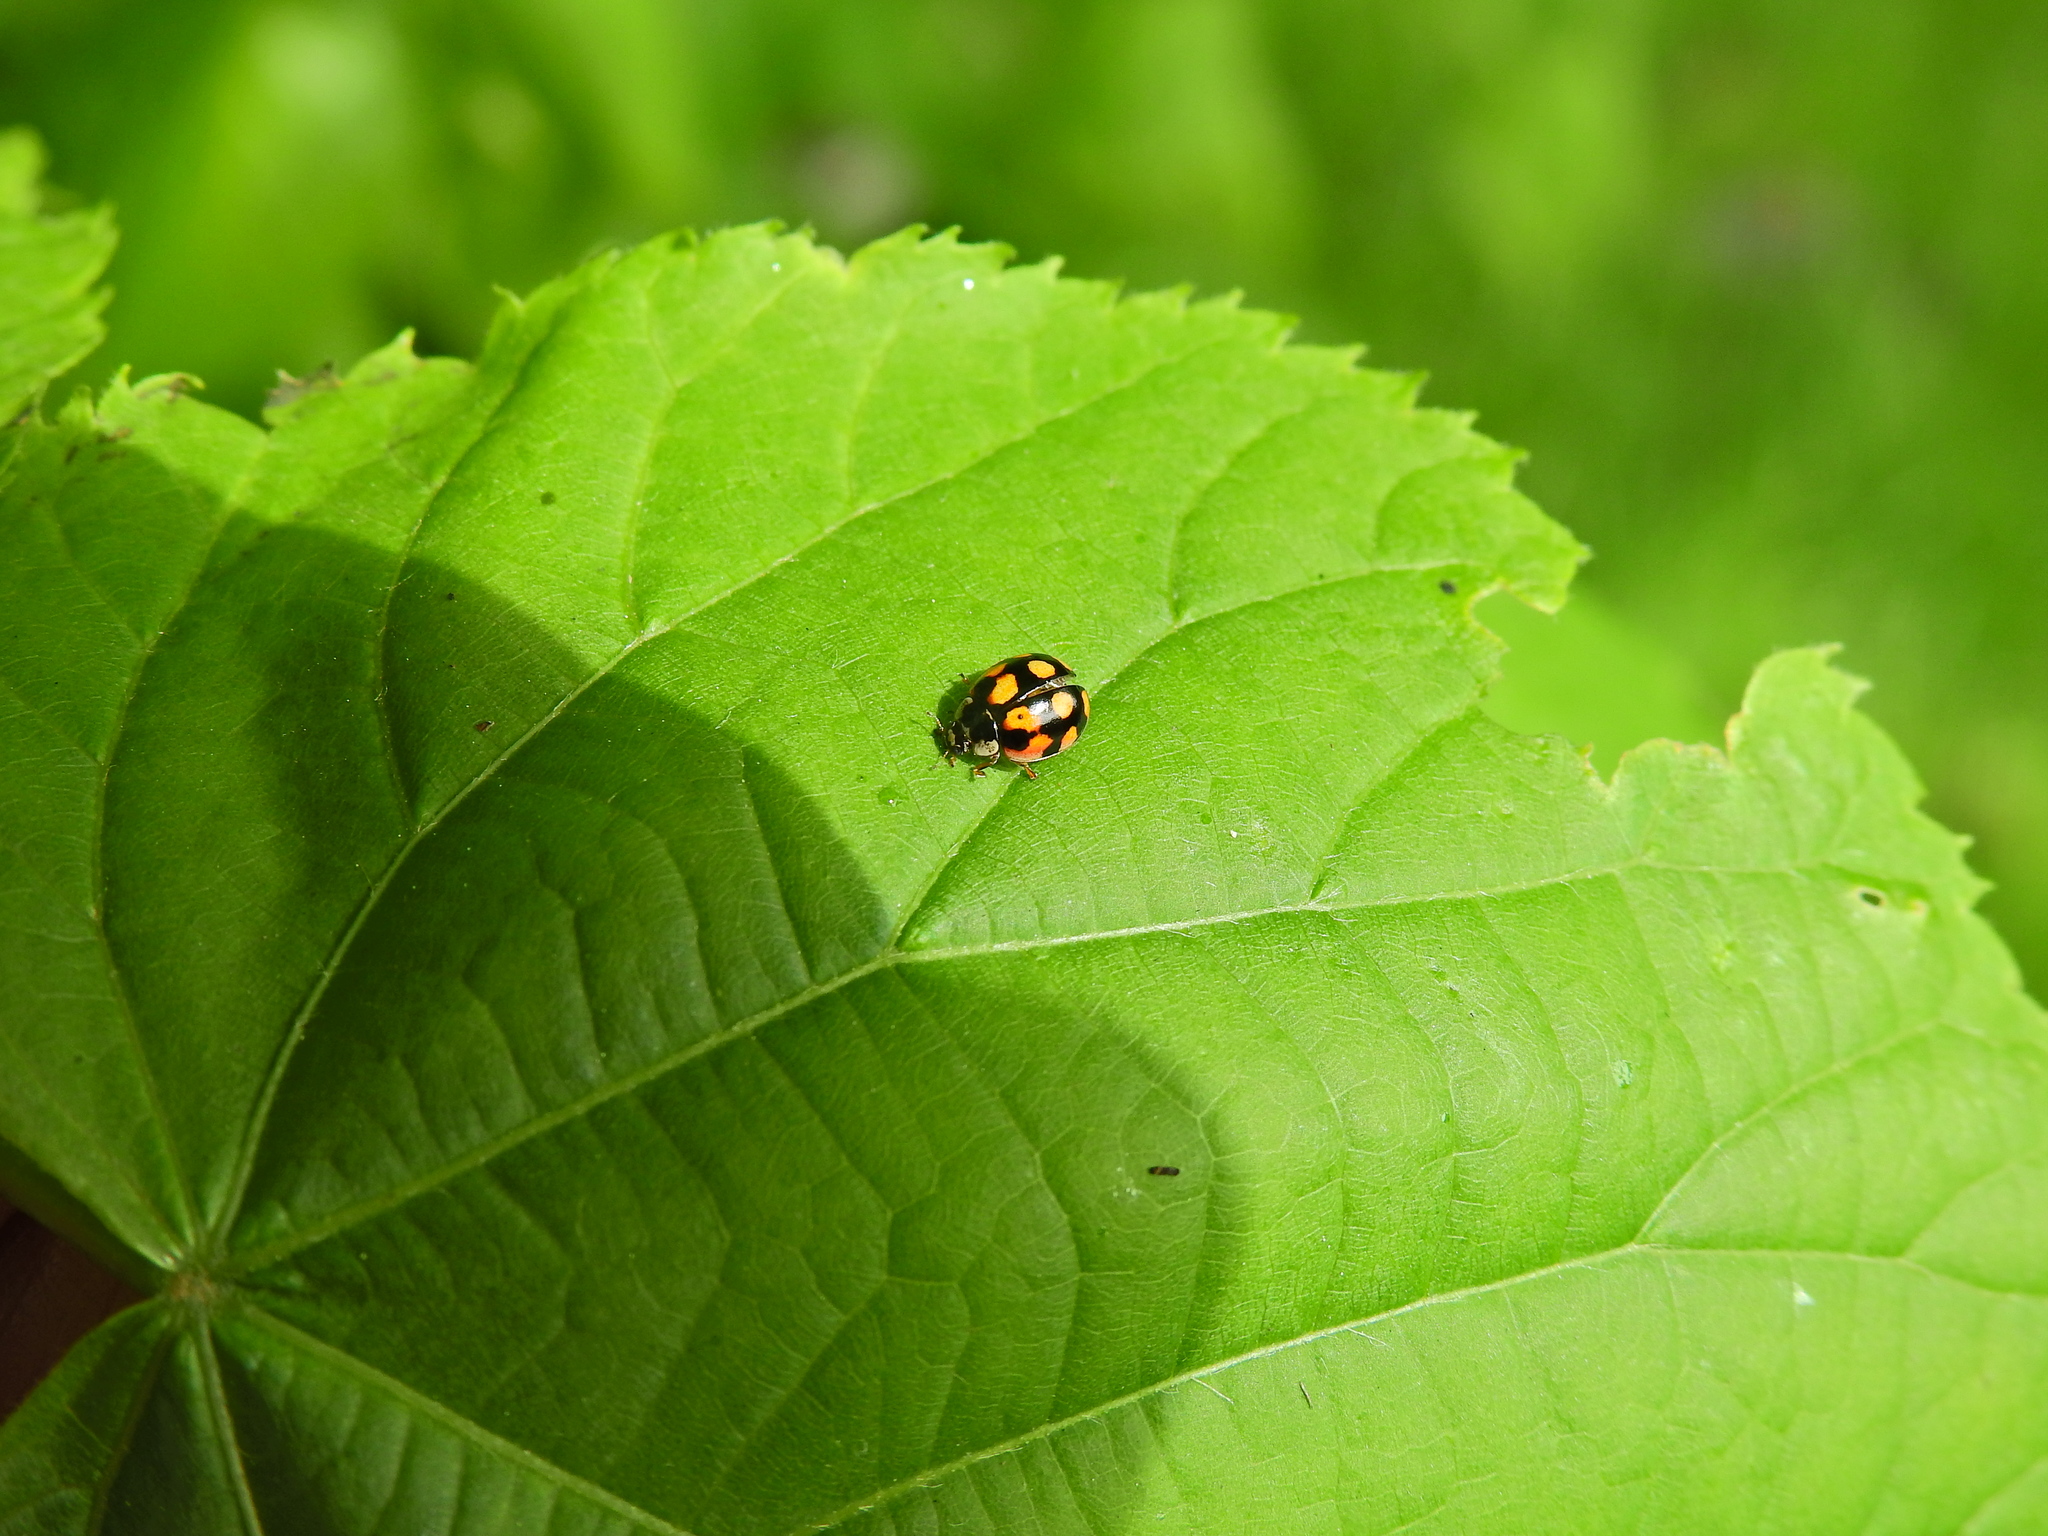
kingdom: Animalia
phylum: Arthropoda
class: Insecta
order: Coleoptera
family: Coccinellidae
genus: Adalia
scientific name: Adalia decempunctata
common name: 10-spot ladybird
